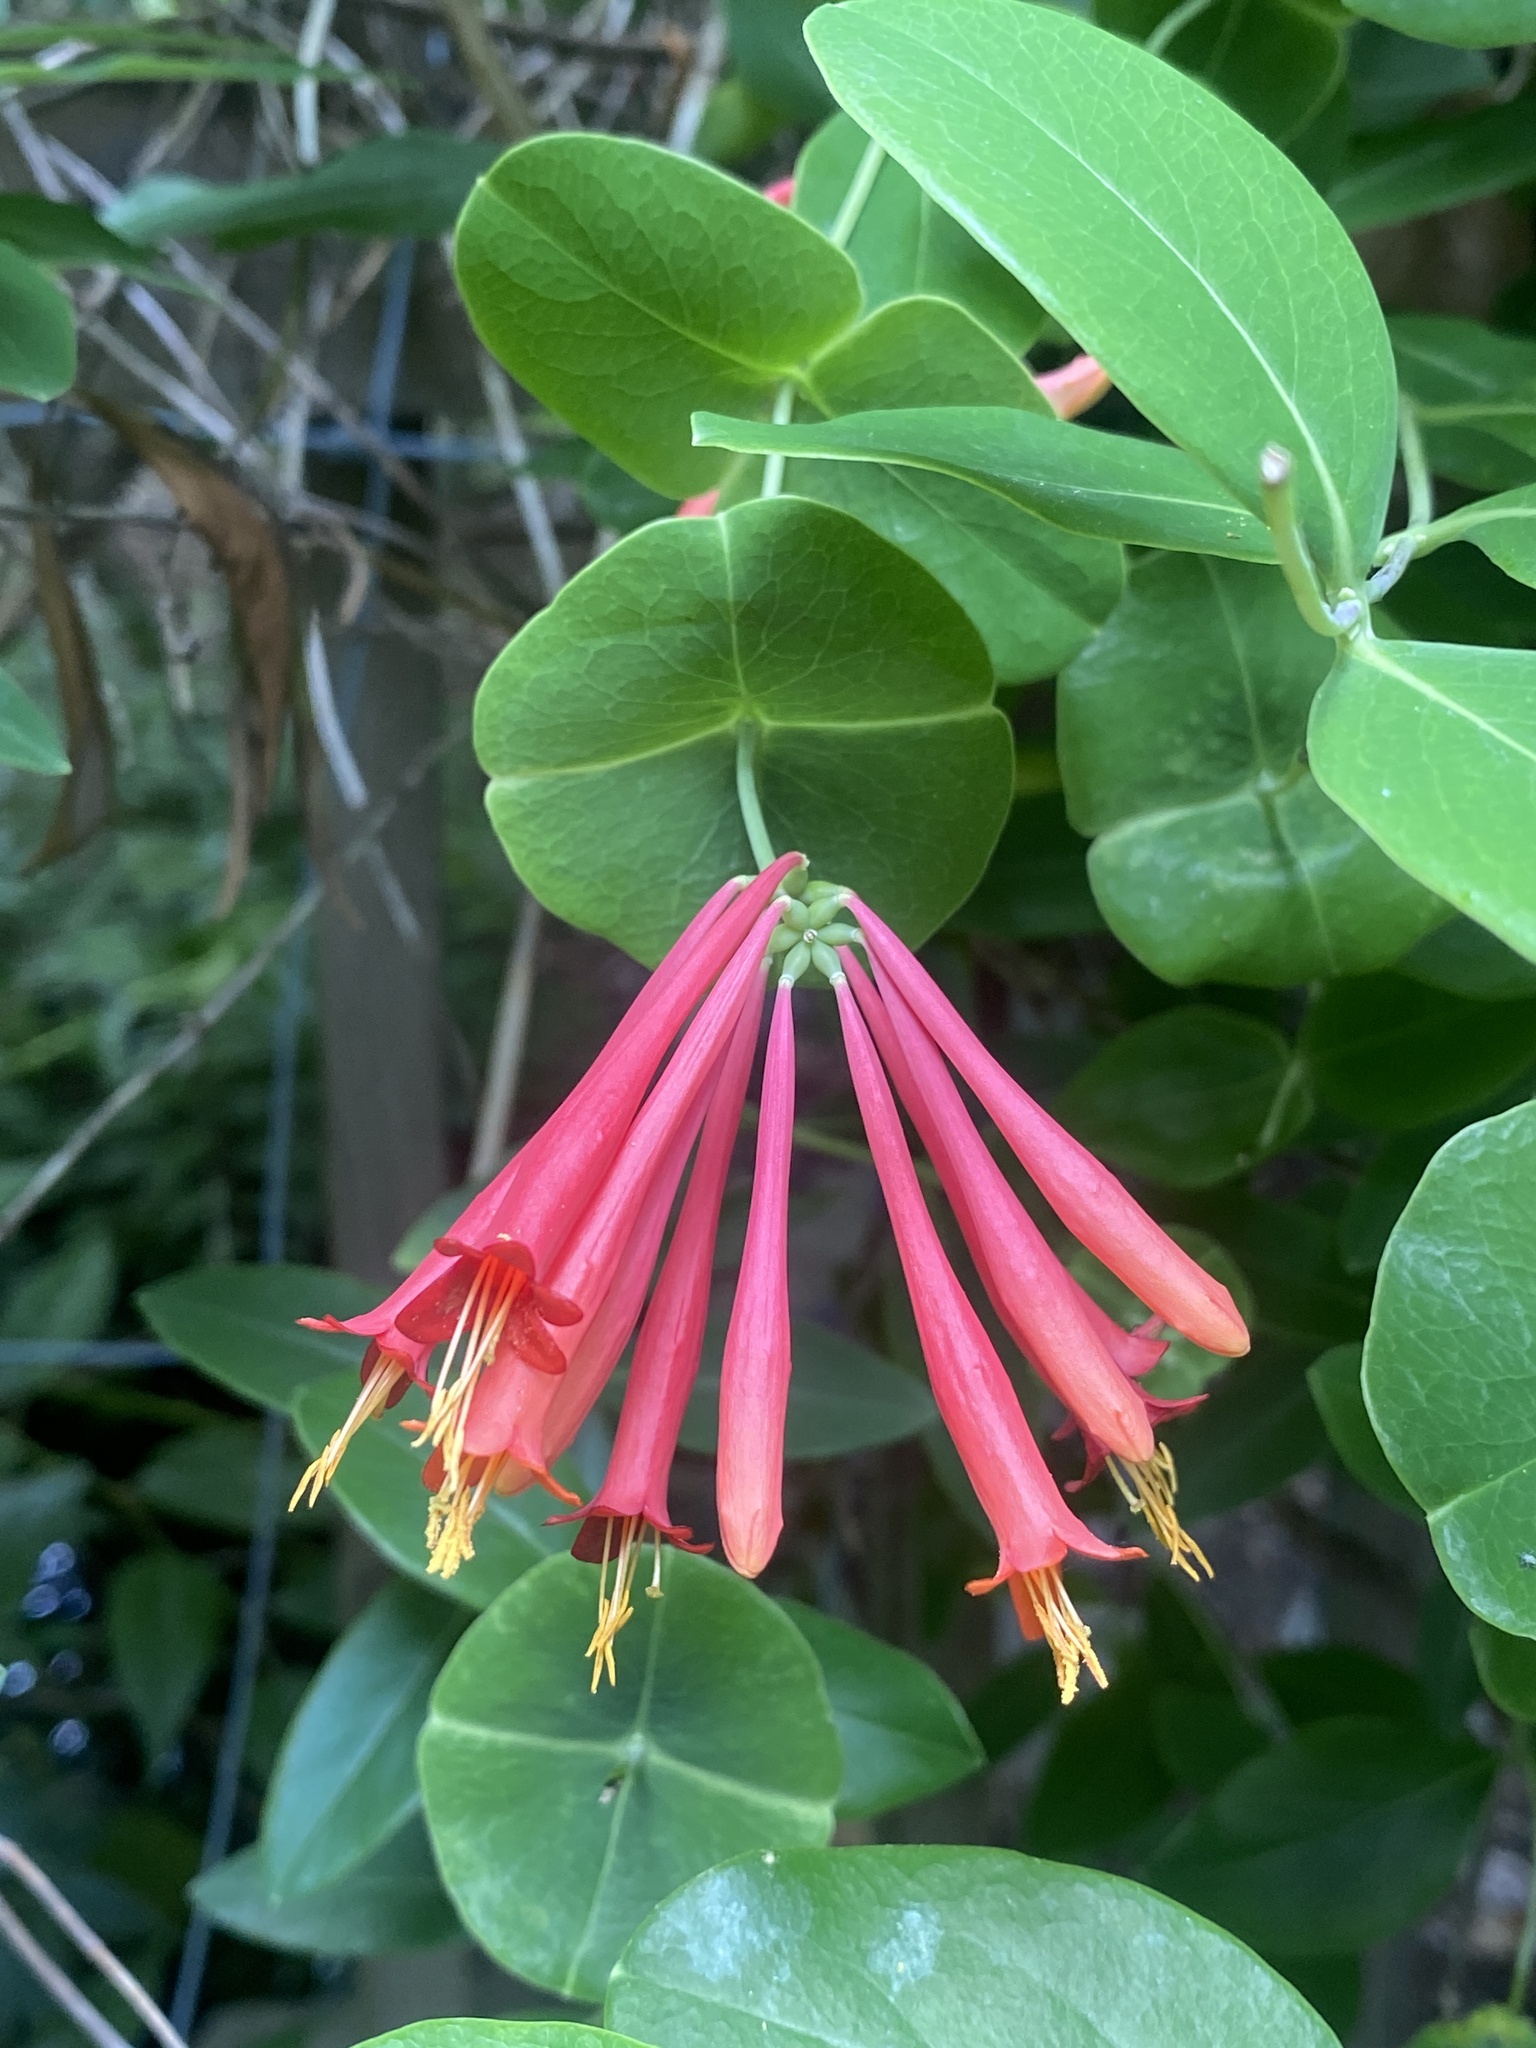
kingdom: Plantae
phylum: Tracheophyta
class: Magnoliopsida
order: Dipsacales
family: Caprifoliaceae
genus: Lonicera
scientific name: Lonicera sempervirens
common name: Coral honeysuckle
